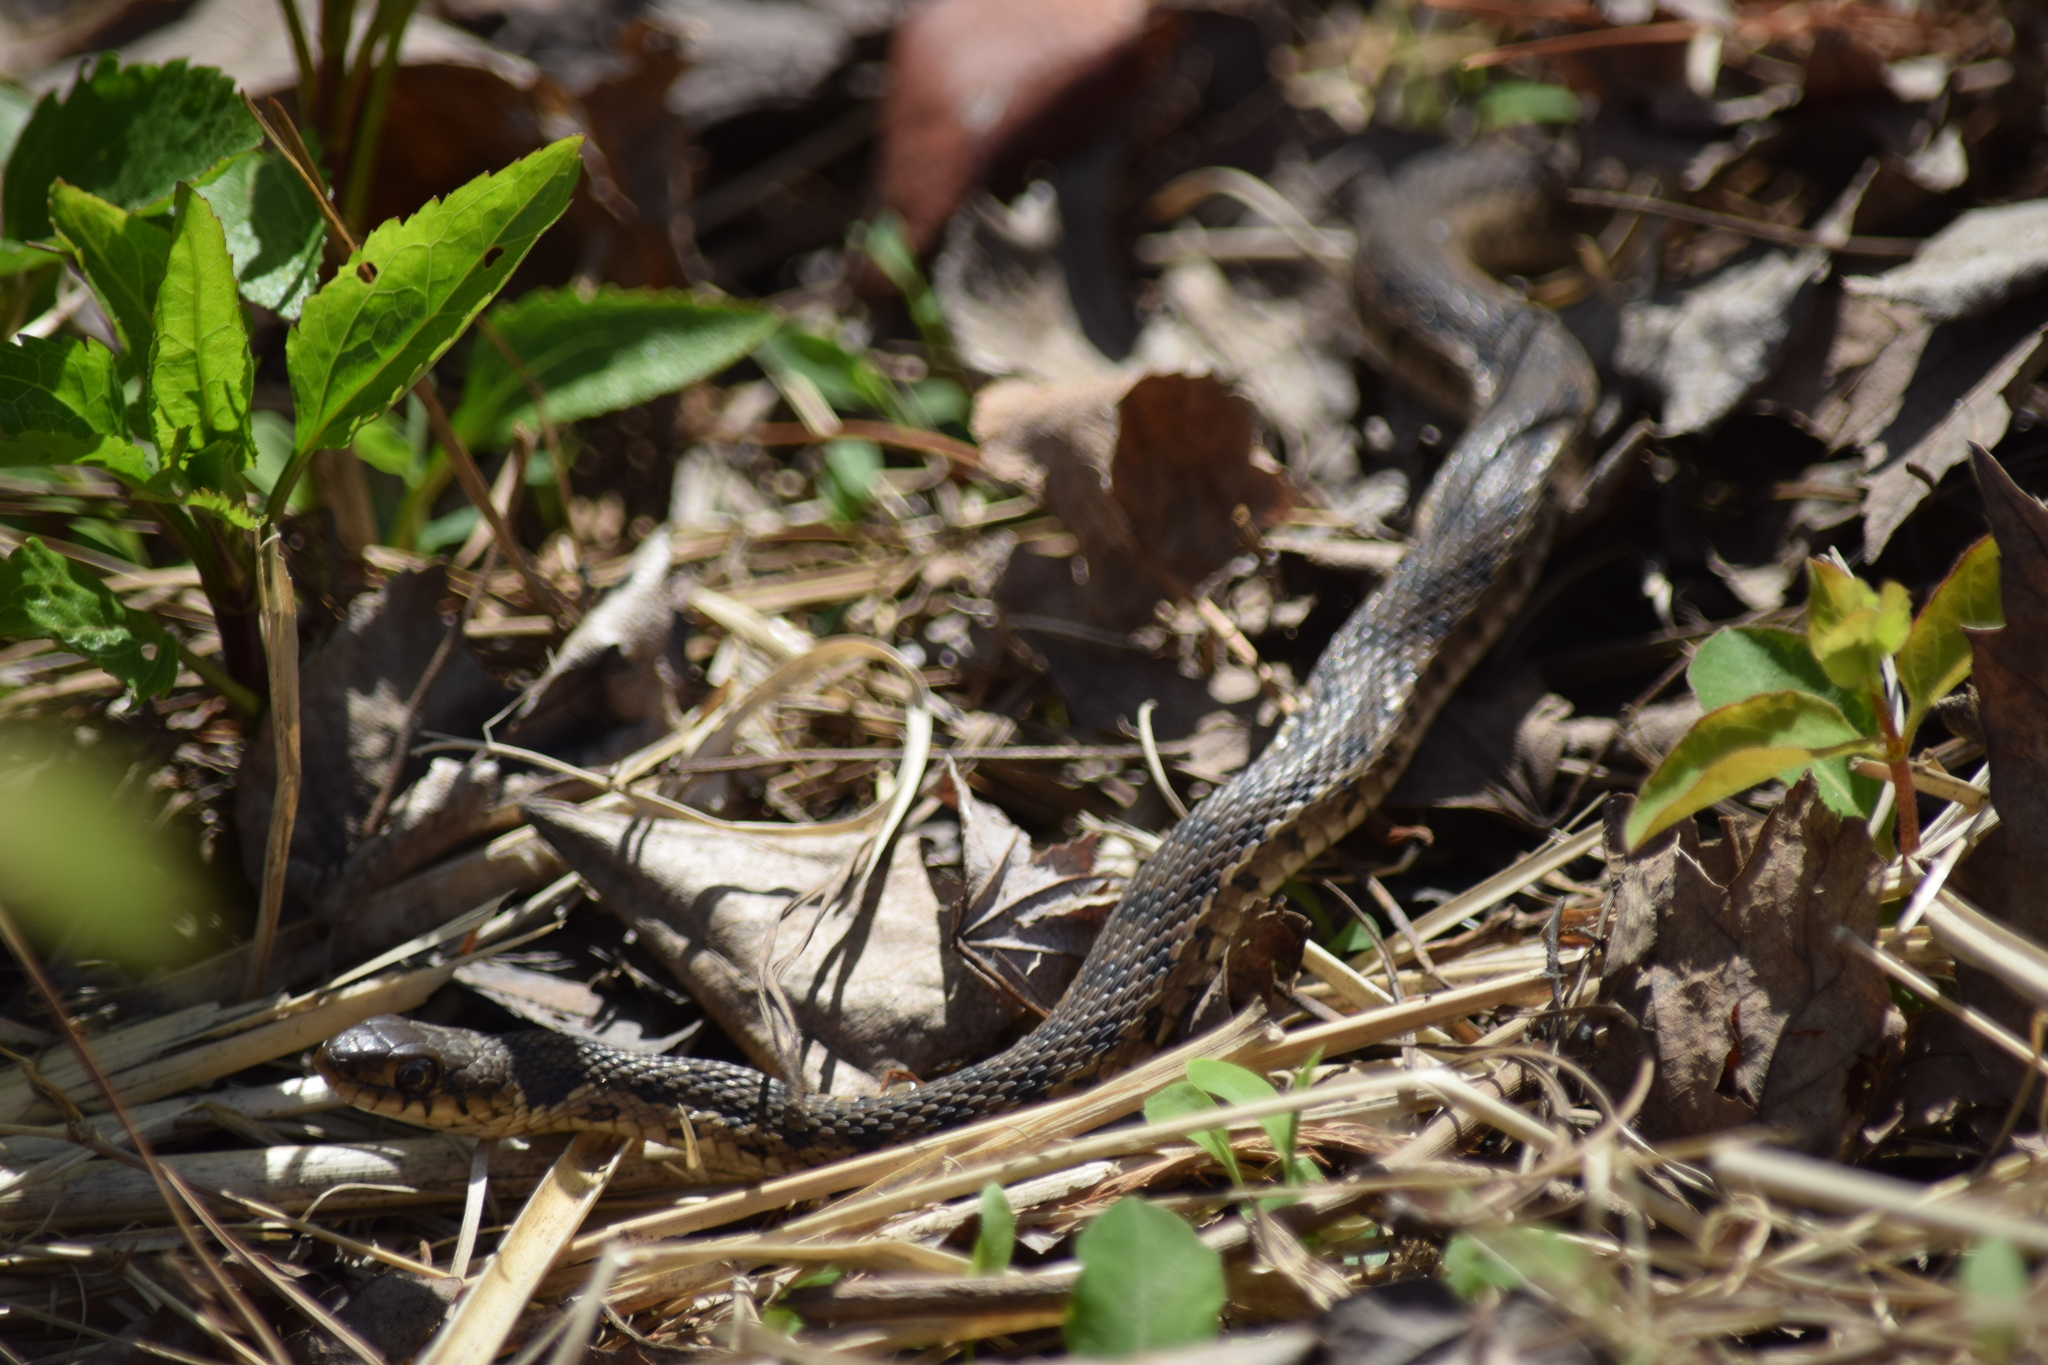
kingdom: Animalia
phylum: Chordata
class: Squamata
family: Colubridae
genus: Thamnophis
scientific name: Thamnophis sirtalis
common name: Common garter snake
